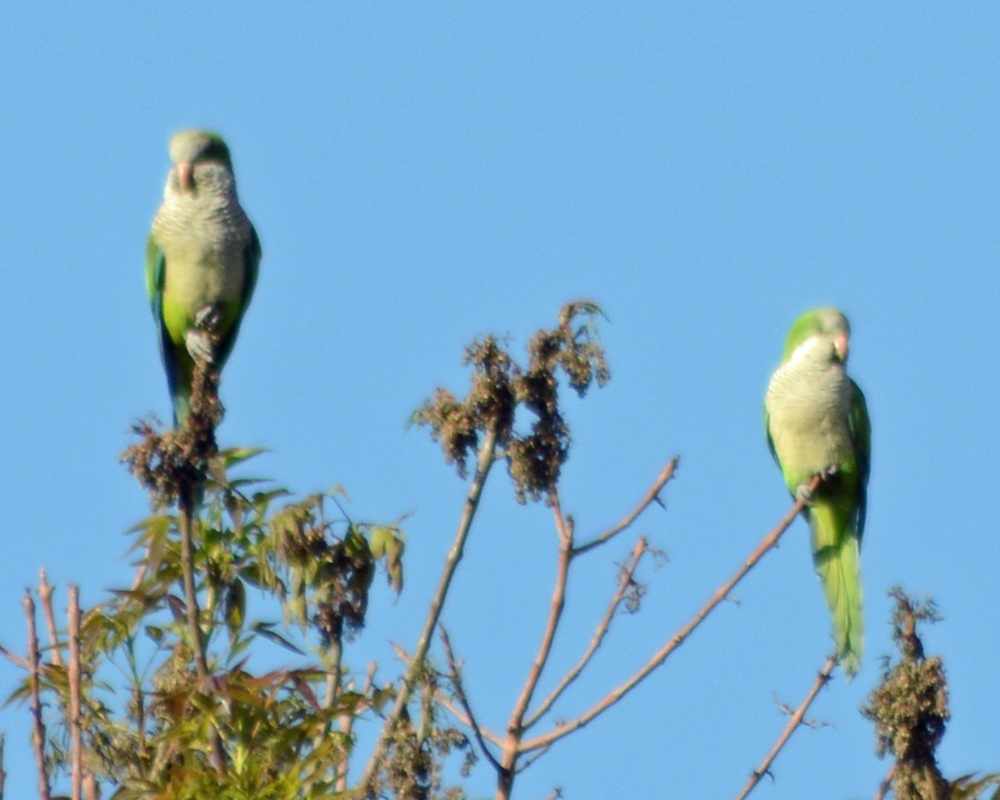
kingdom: Animalia
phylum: Chordata
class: Aves
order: Psittaciformes
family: Psittacidae
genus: Myiopsitta
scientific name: Myiopsitta monachus
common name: Monk parakeet
